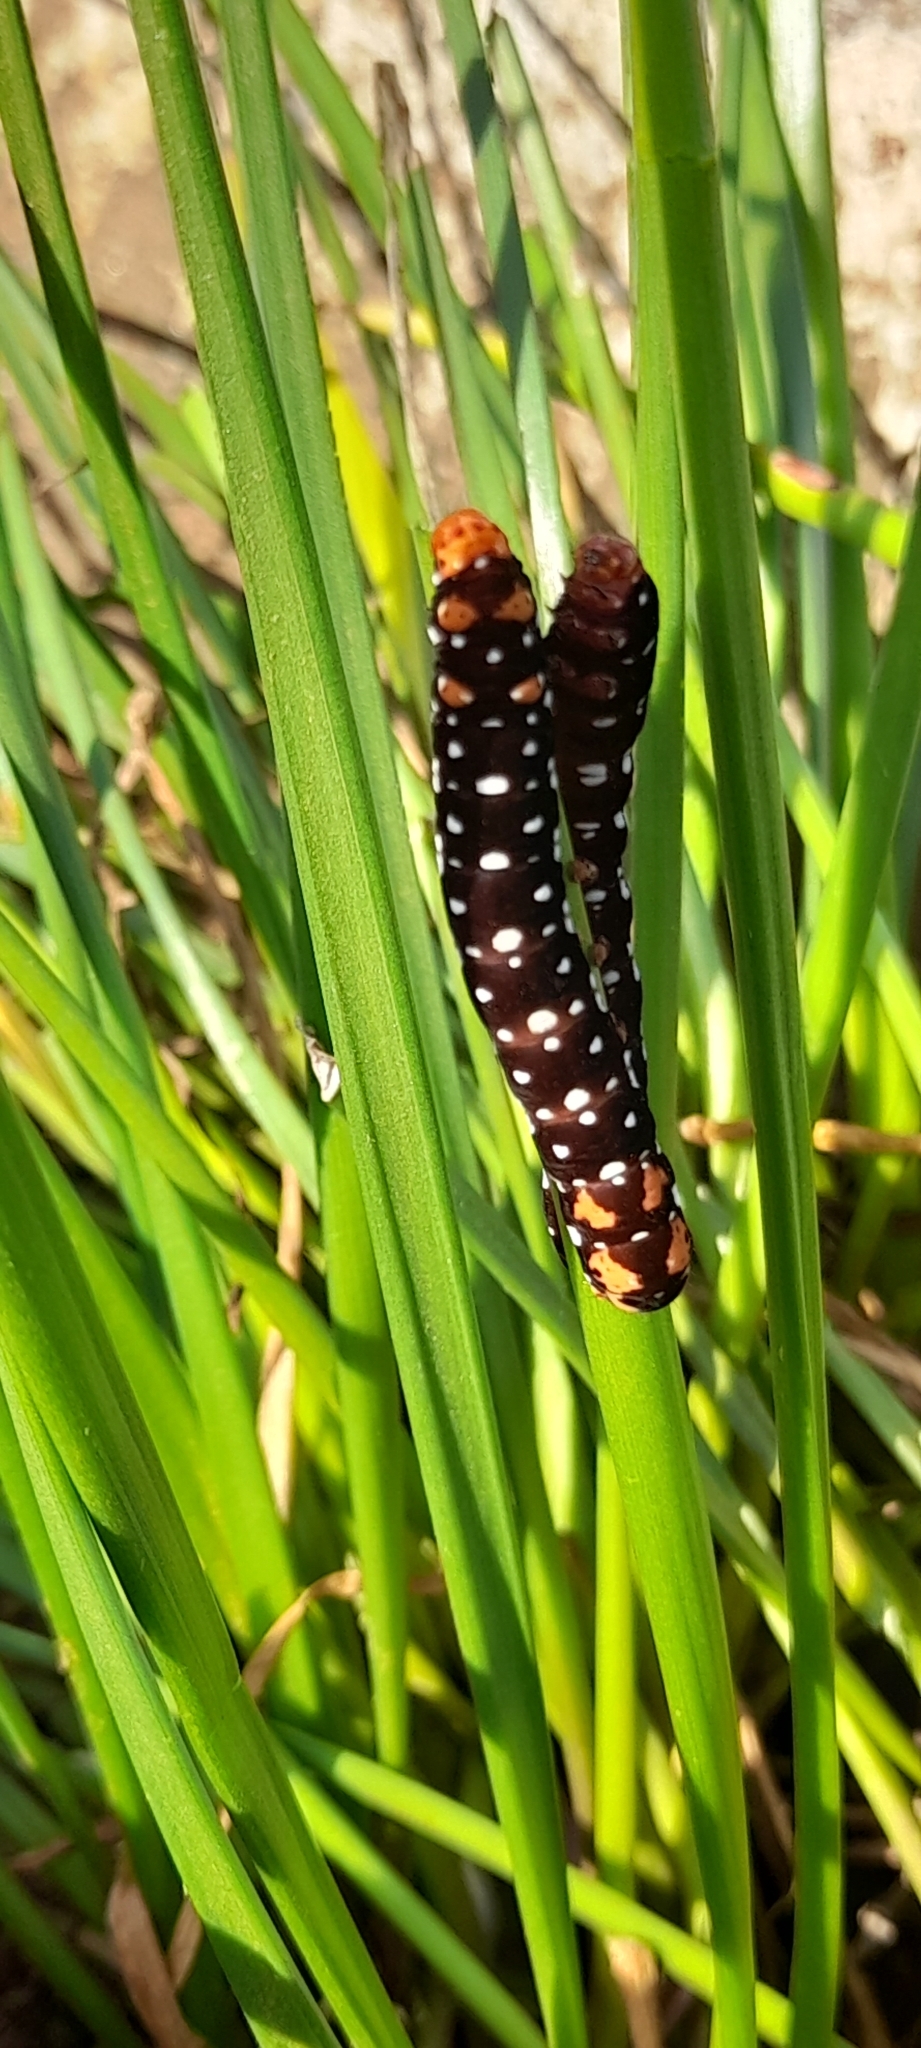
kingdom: Animalia
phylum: Arthropoda
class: Insecta
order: Lepidoptera
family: Noctuidae
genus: Polytela
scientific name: Polytela gloriosae
